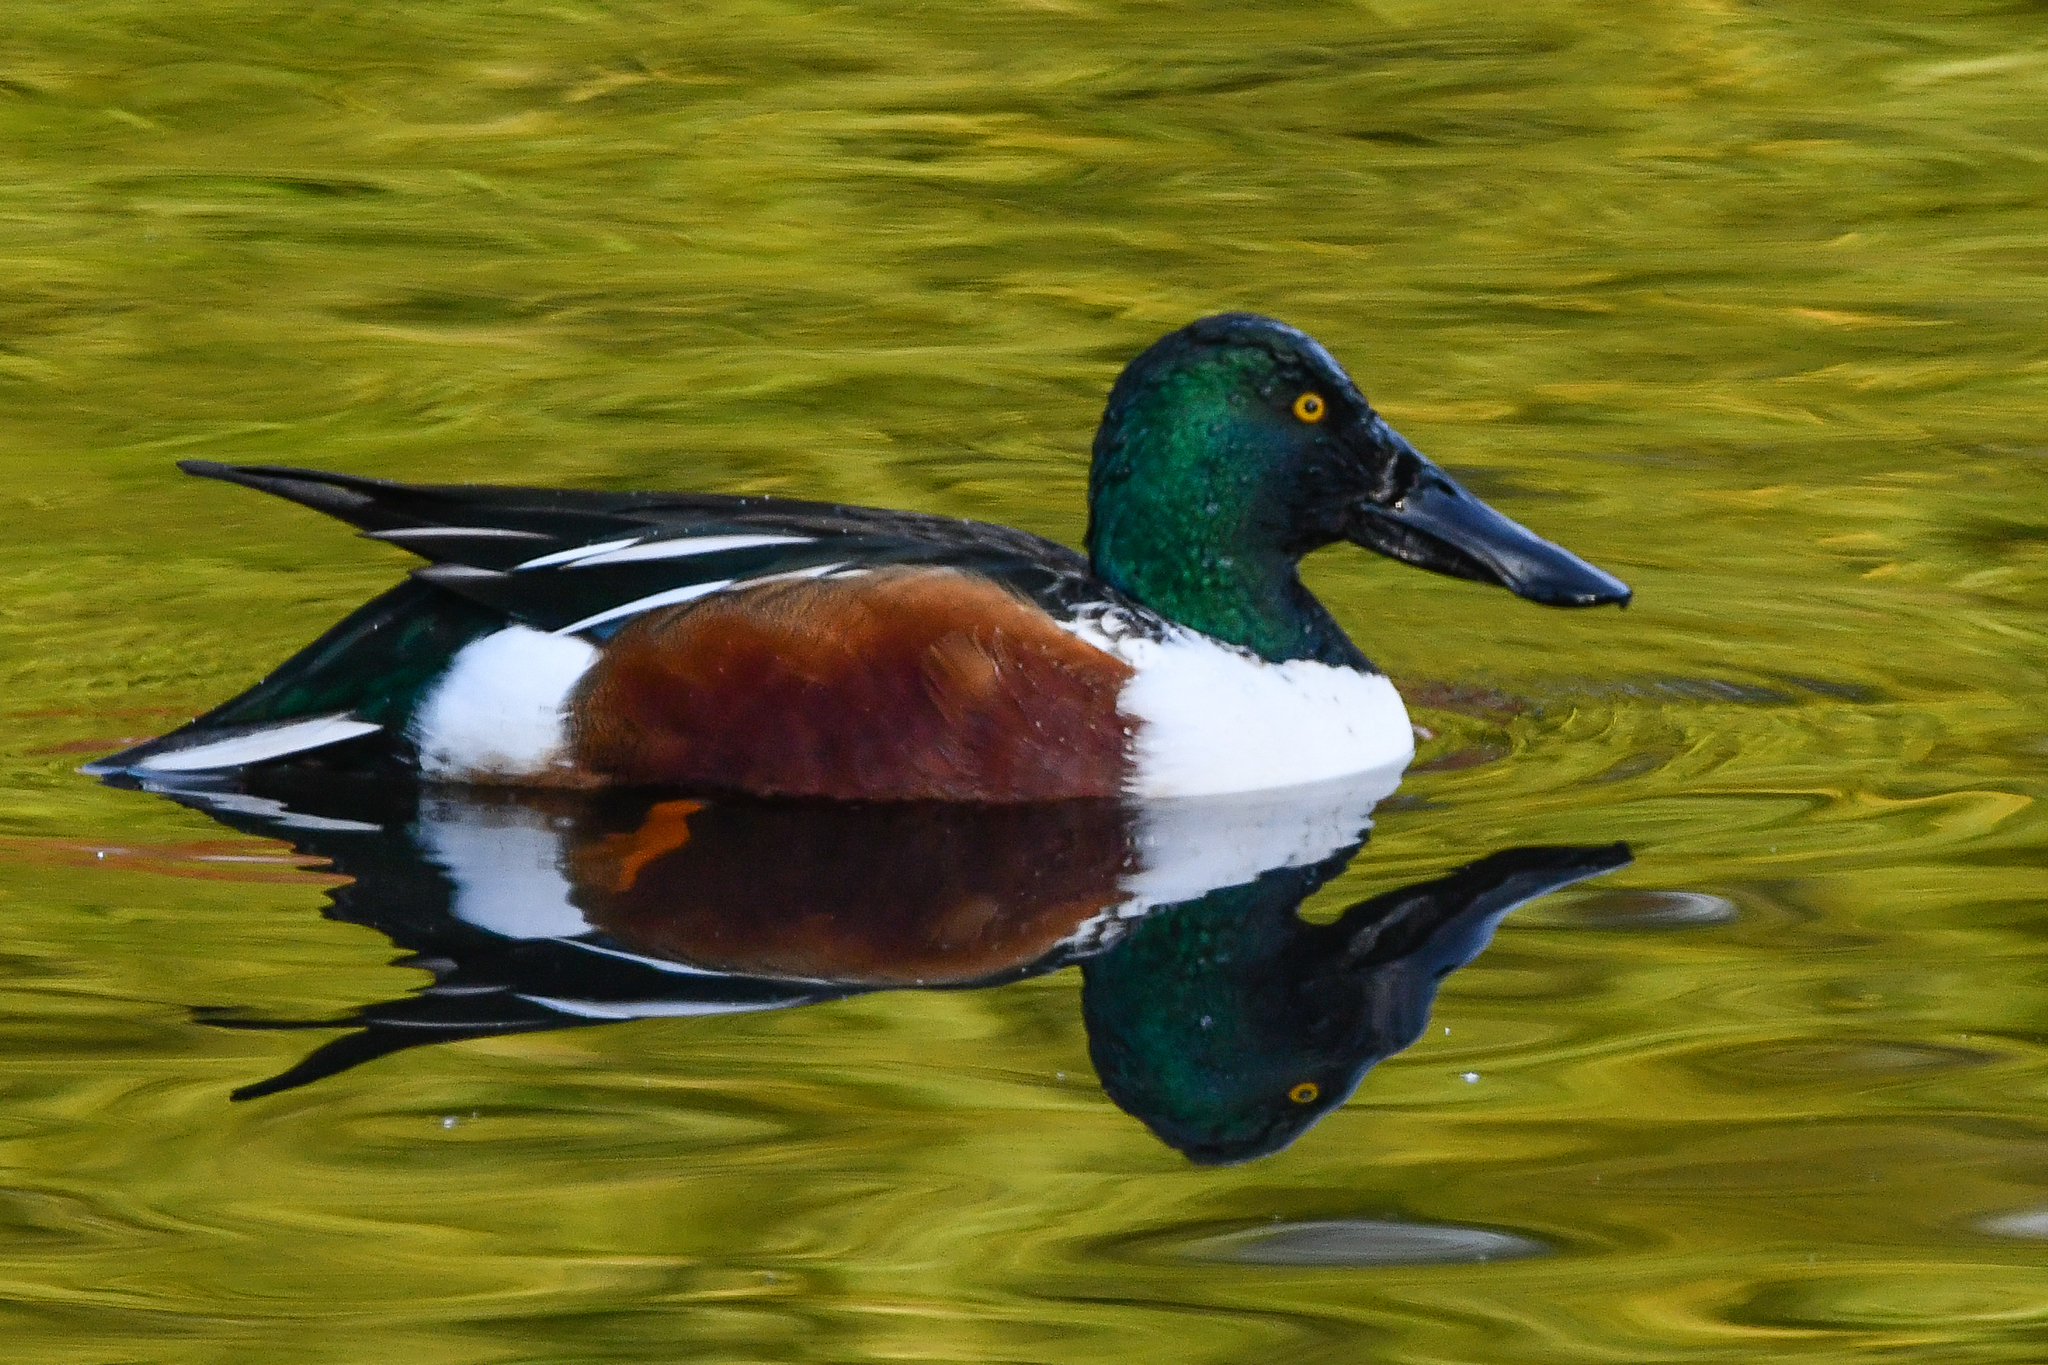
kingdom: Animalia
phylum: Chordata
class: Aves
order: Anseriformes
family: Anatidae
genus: Spatula
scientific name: Spatula clypeata
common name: Northern shoveler
